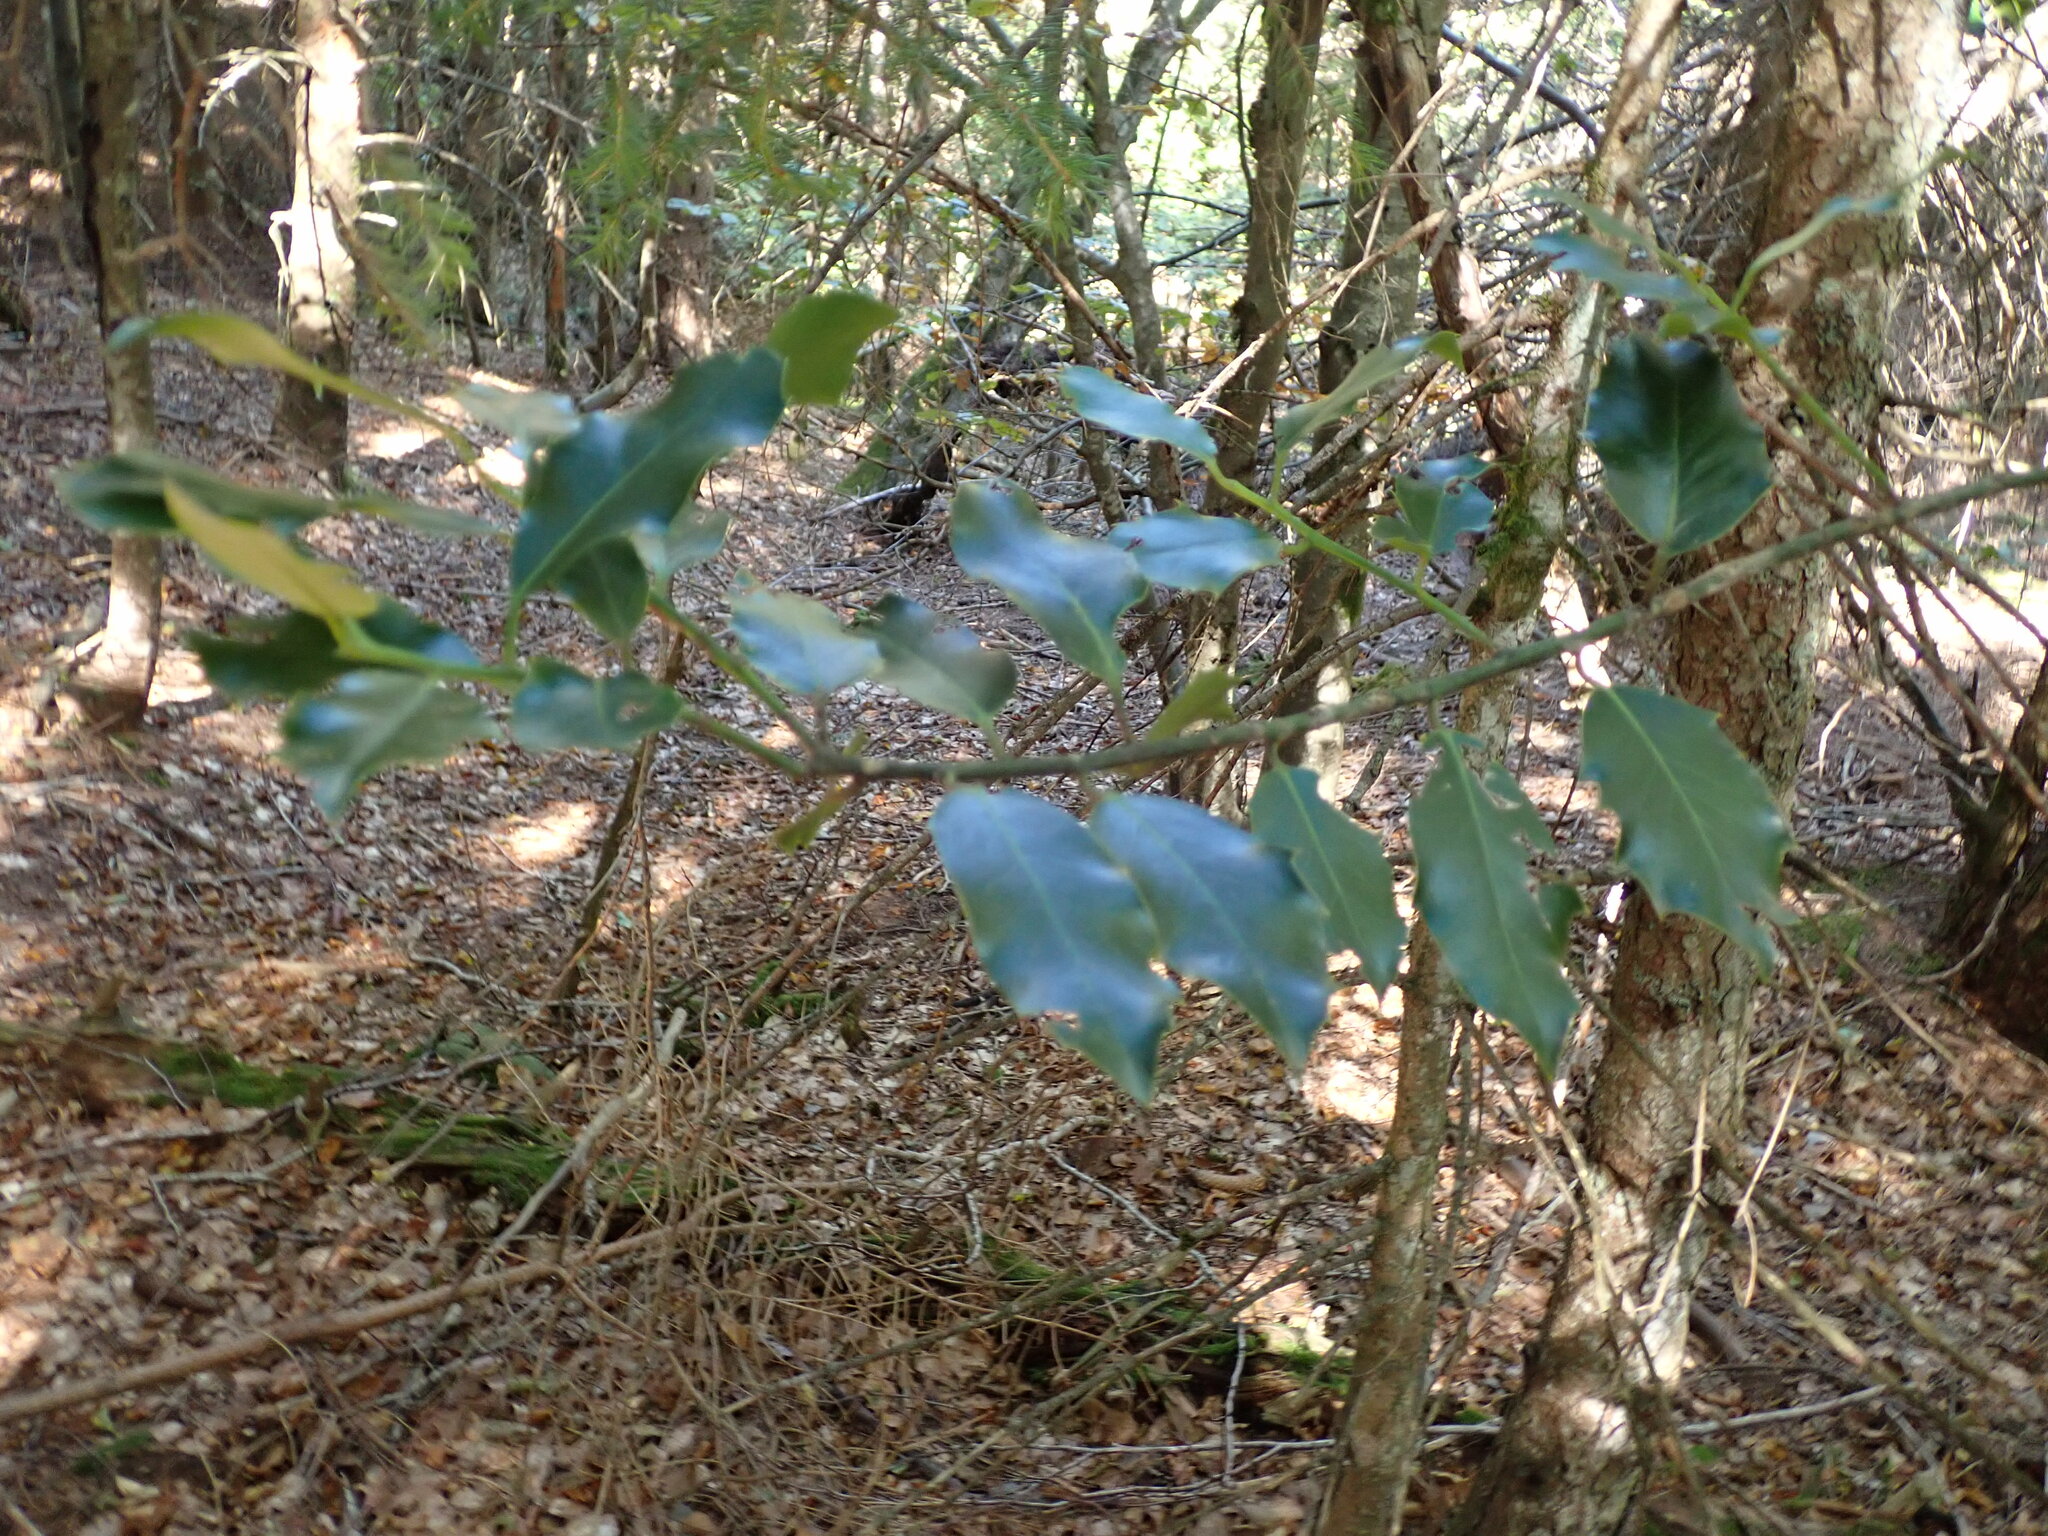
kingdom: Plantae
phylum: Tracheophyta
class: Magnoliopsida
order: Aquifoliales
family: Aquifoliaceae
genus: Ilex
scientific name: Ilex aquifolium
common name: English holly
